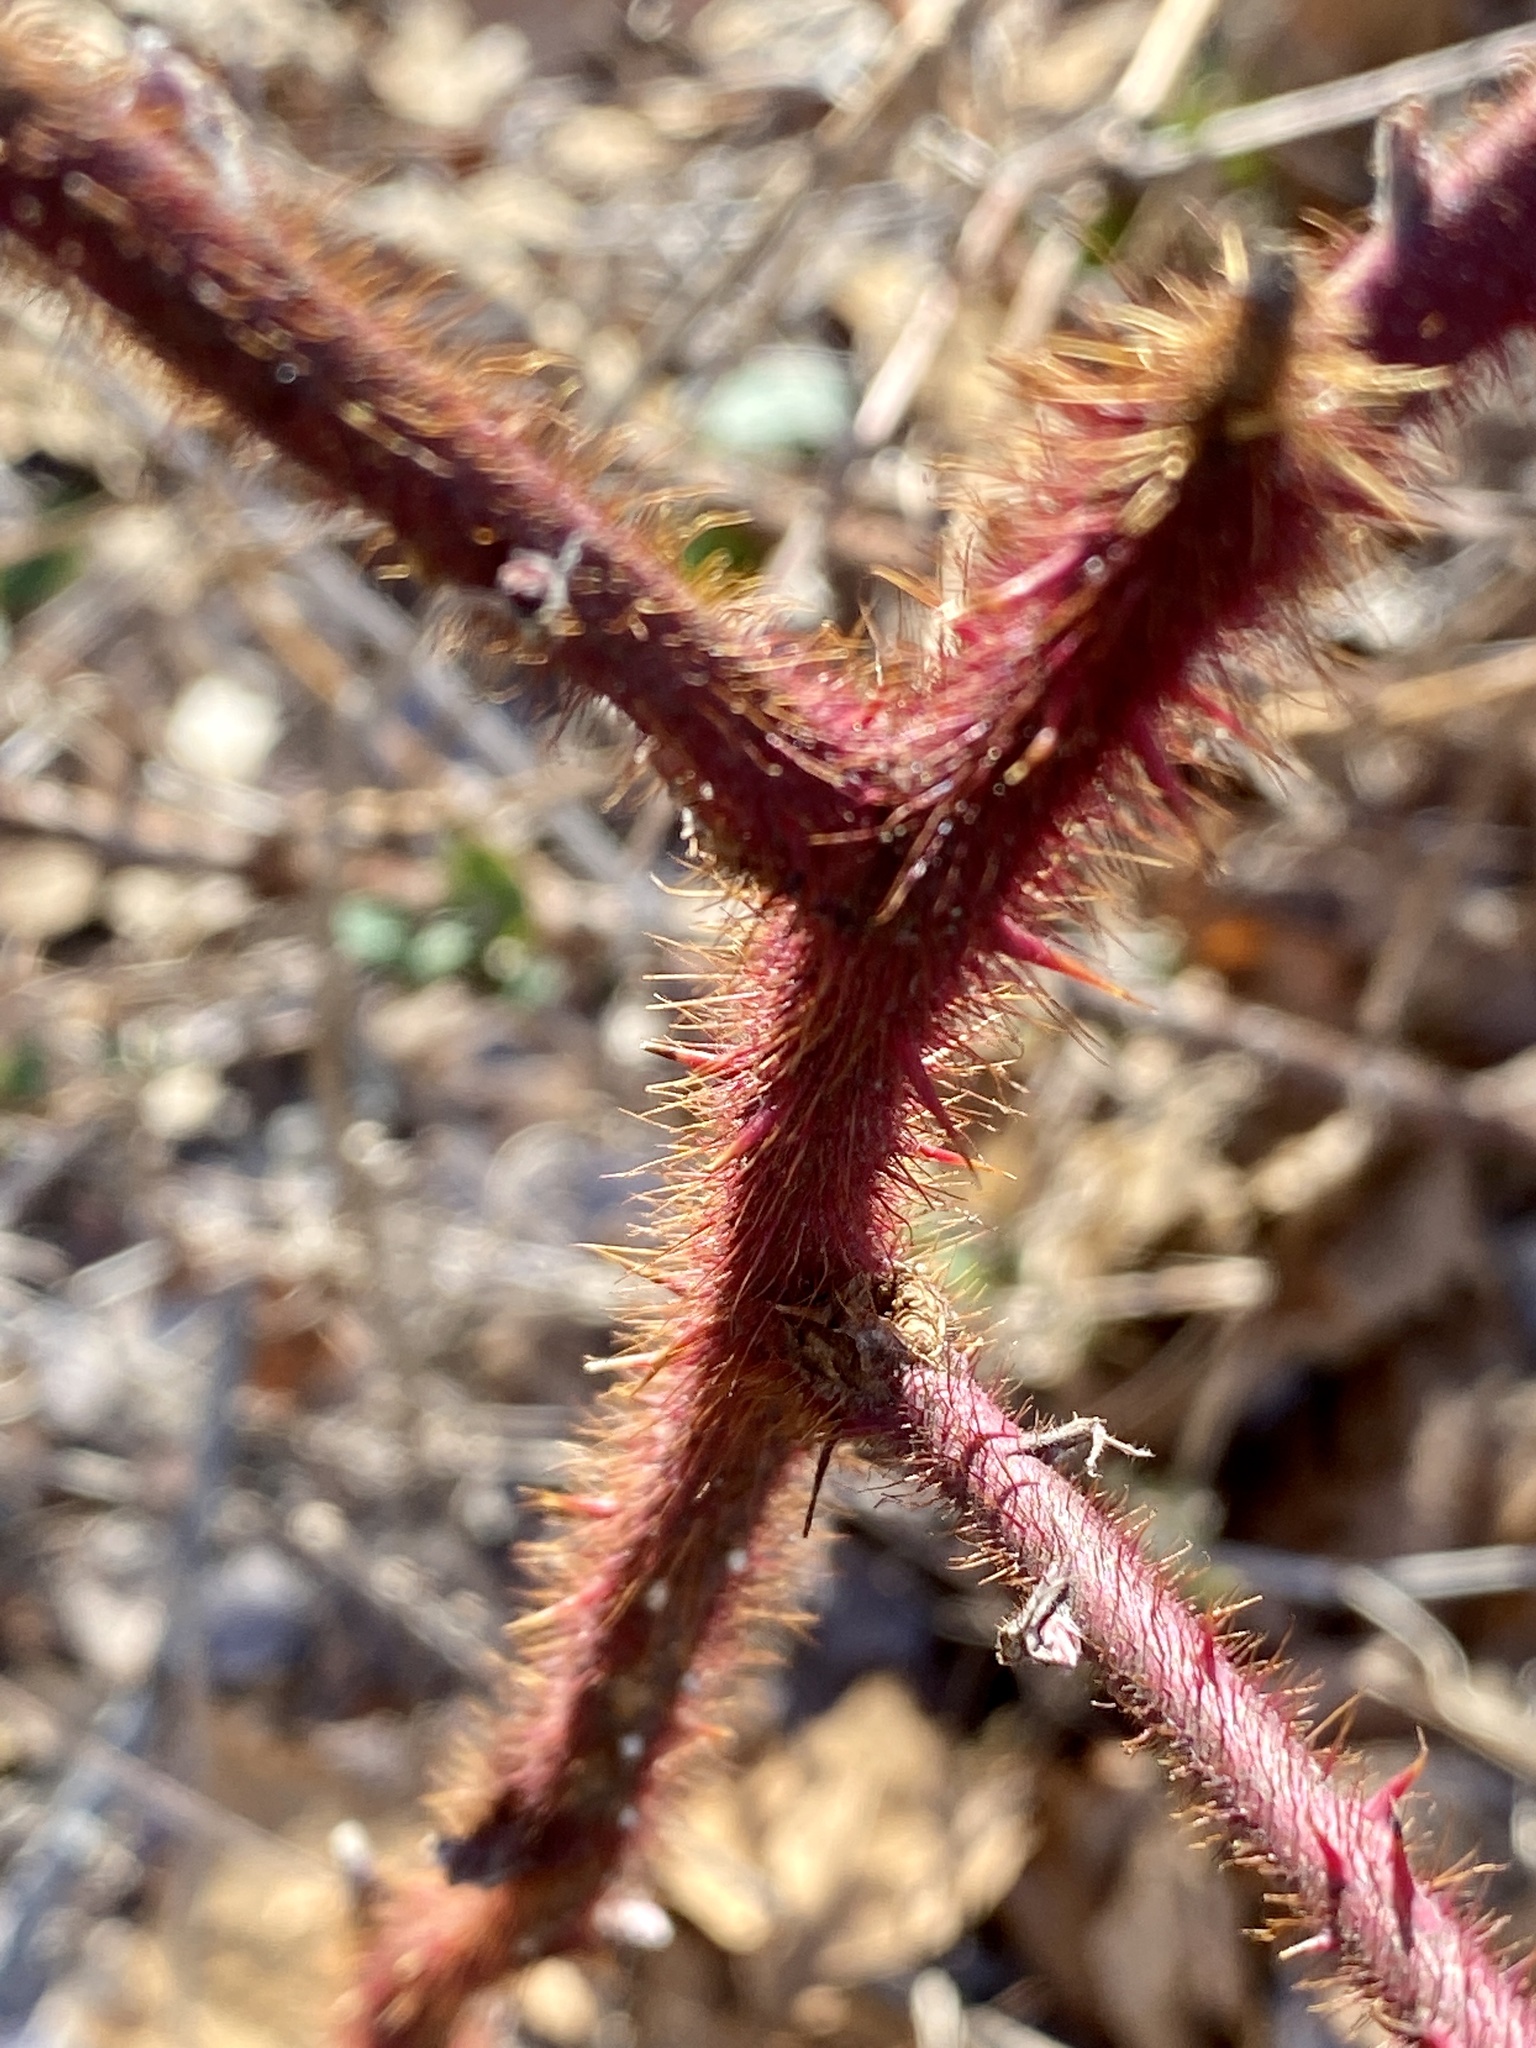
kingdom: Plantae
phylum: Tracheophyta
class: Magnoliopsida
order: Rosales
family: Rosaceae
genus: Rubus
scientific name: Rubus phoenicolasius
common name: Japanese wineberry
